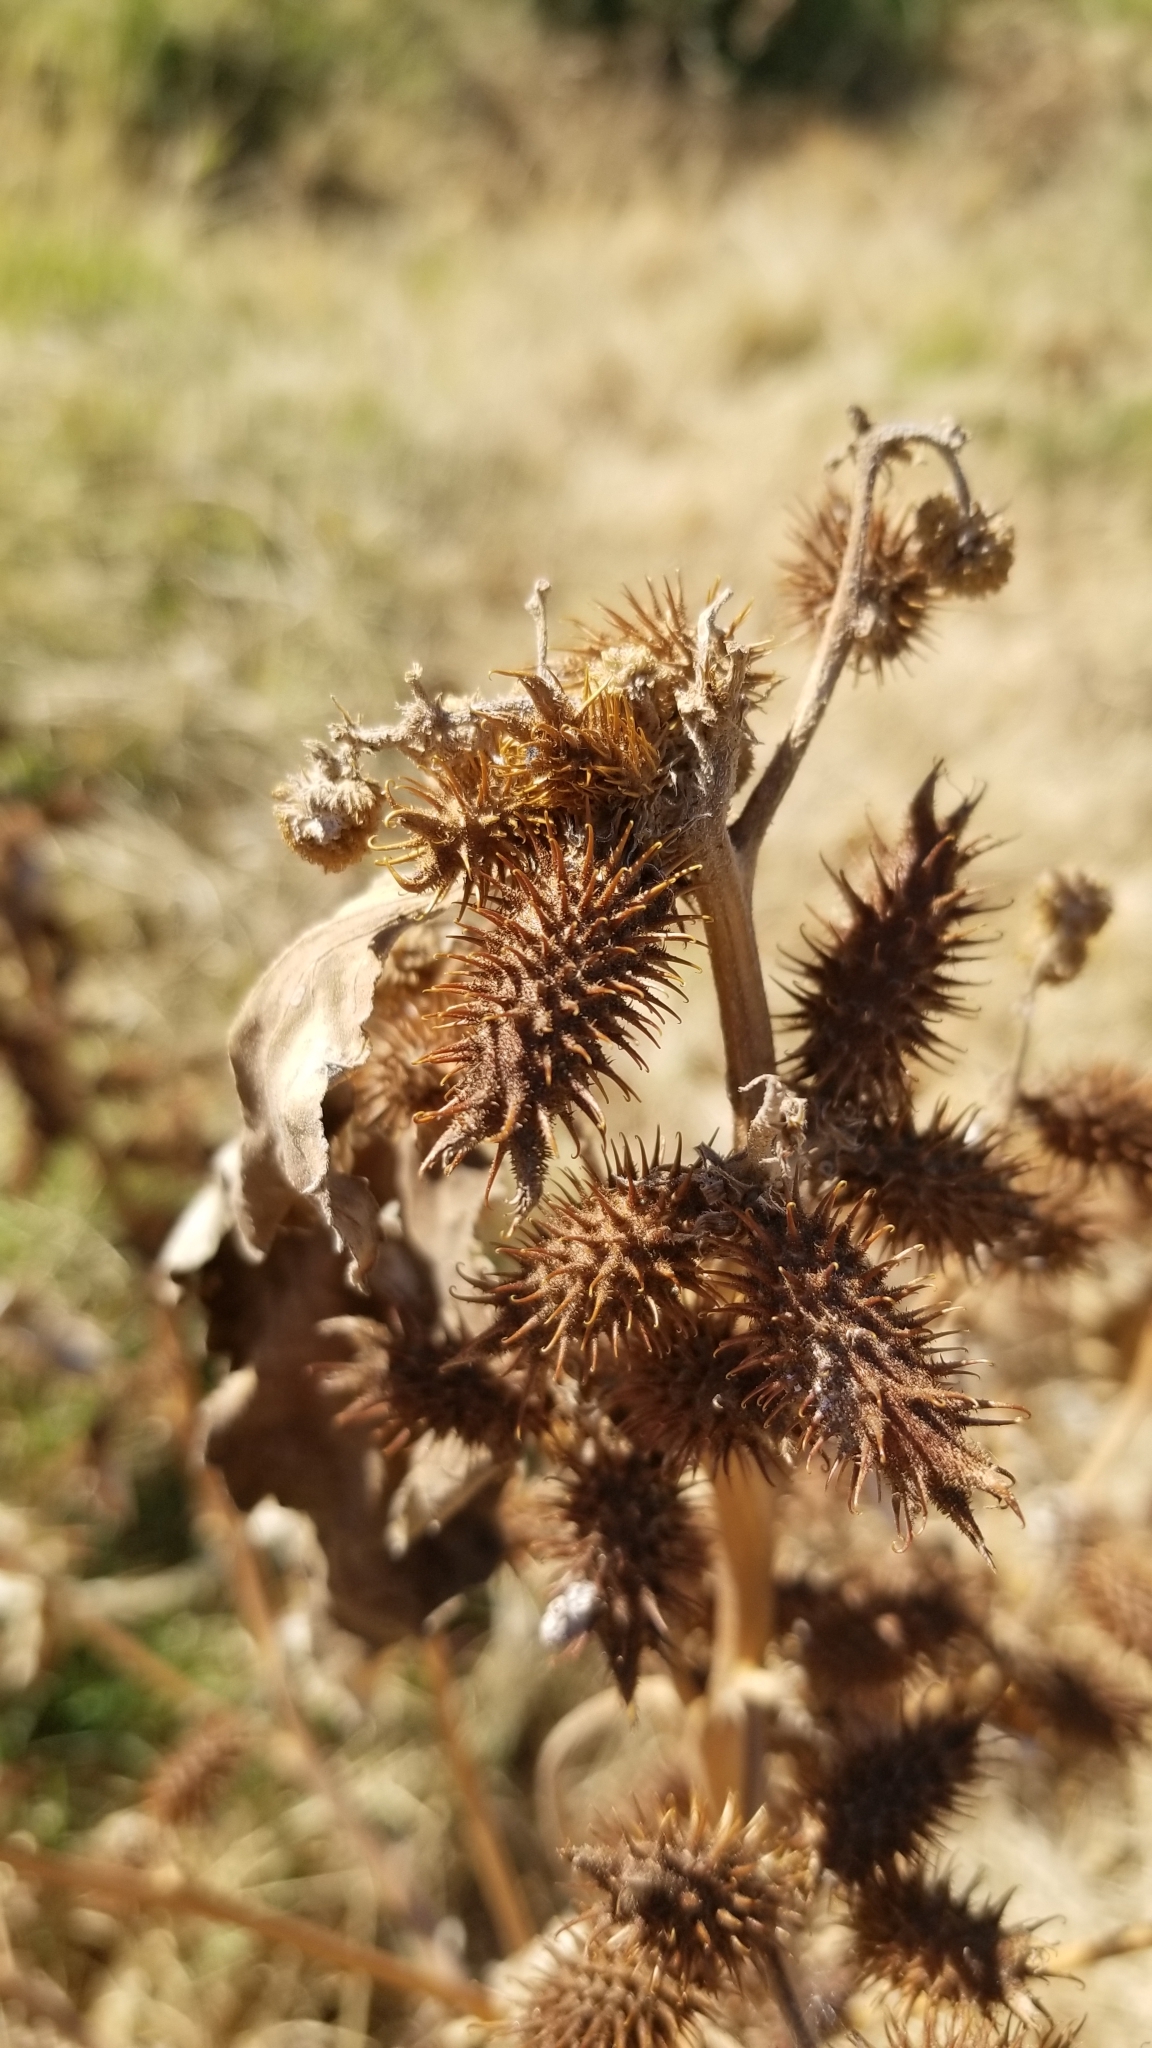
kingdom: Plantae
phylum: Tracheophyta
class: Magnoliopsida
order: Asterales
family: Asteraceae
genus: Xanthium
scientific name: Xanthium strumarium
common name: Rough cocklebur
